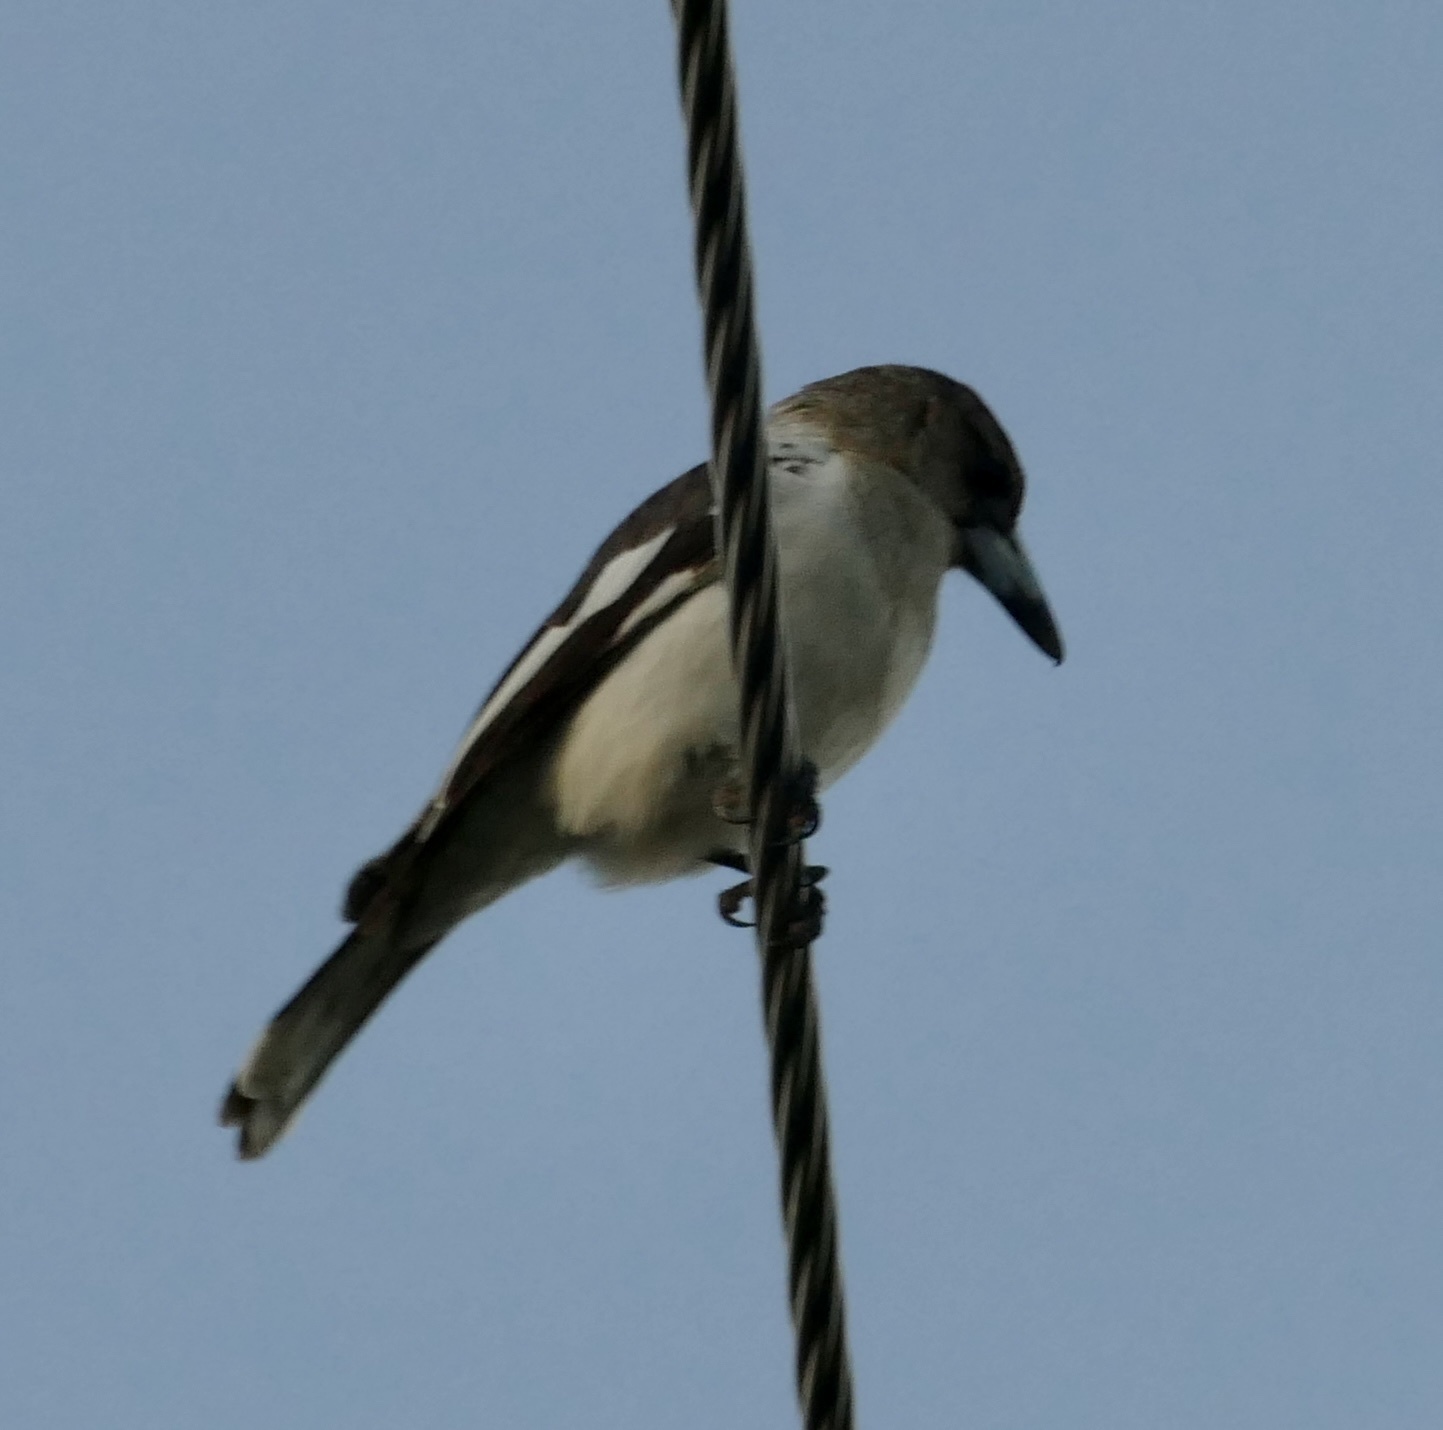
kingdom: Animalia
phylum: Chordata
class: Aves
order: Passeriformes
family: Cracticidae
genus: Cracticus
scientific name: Cracticus nigrogularis
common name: Pied butcherbird
